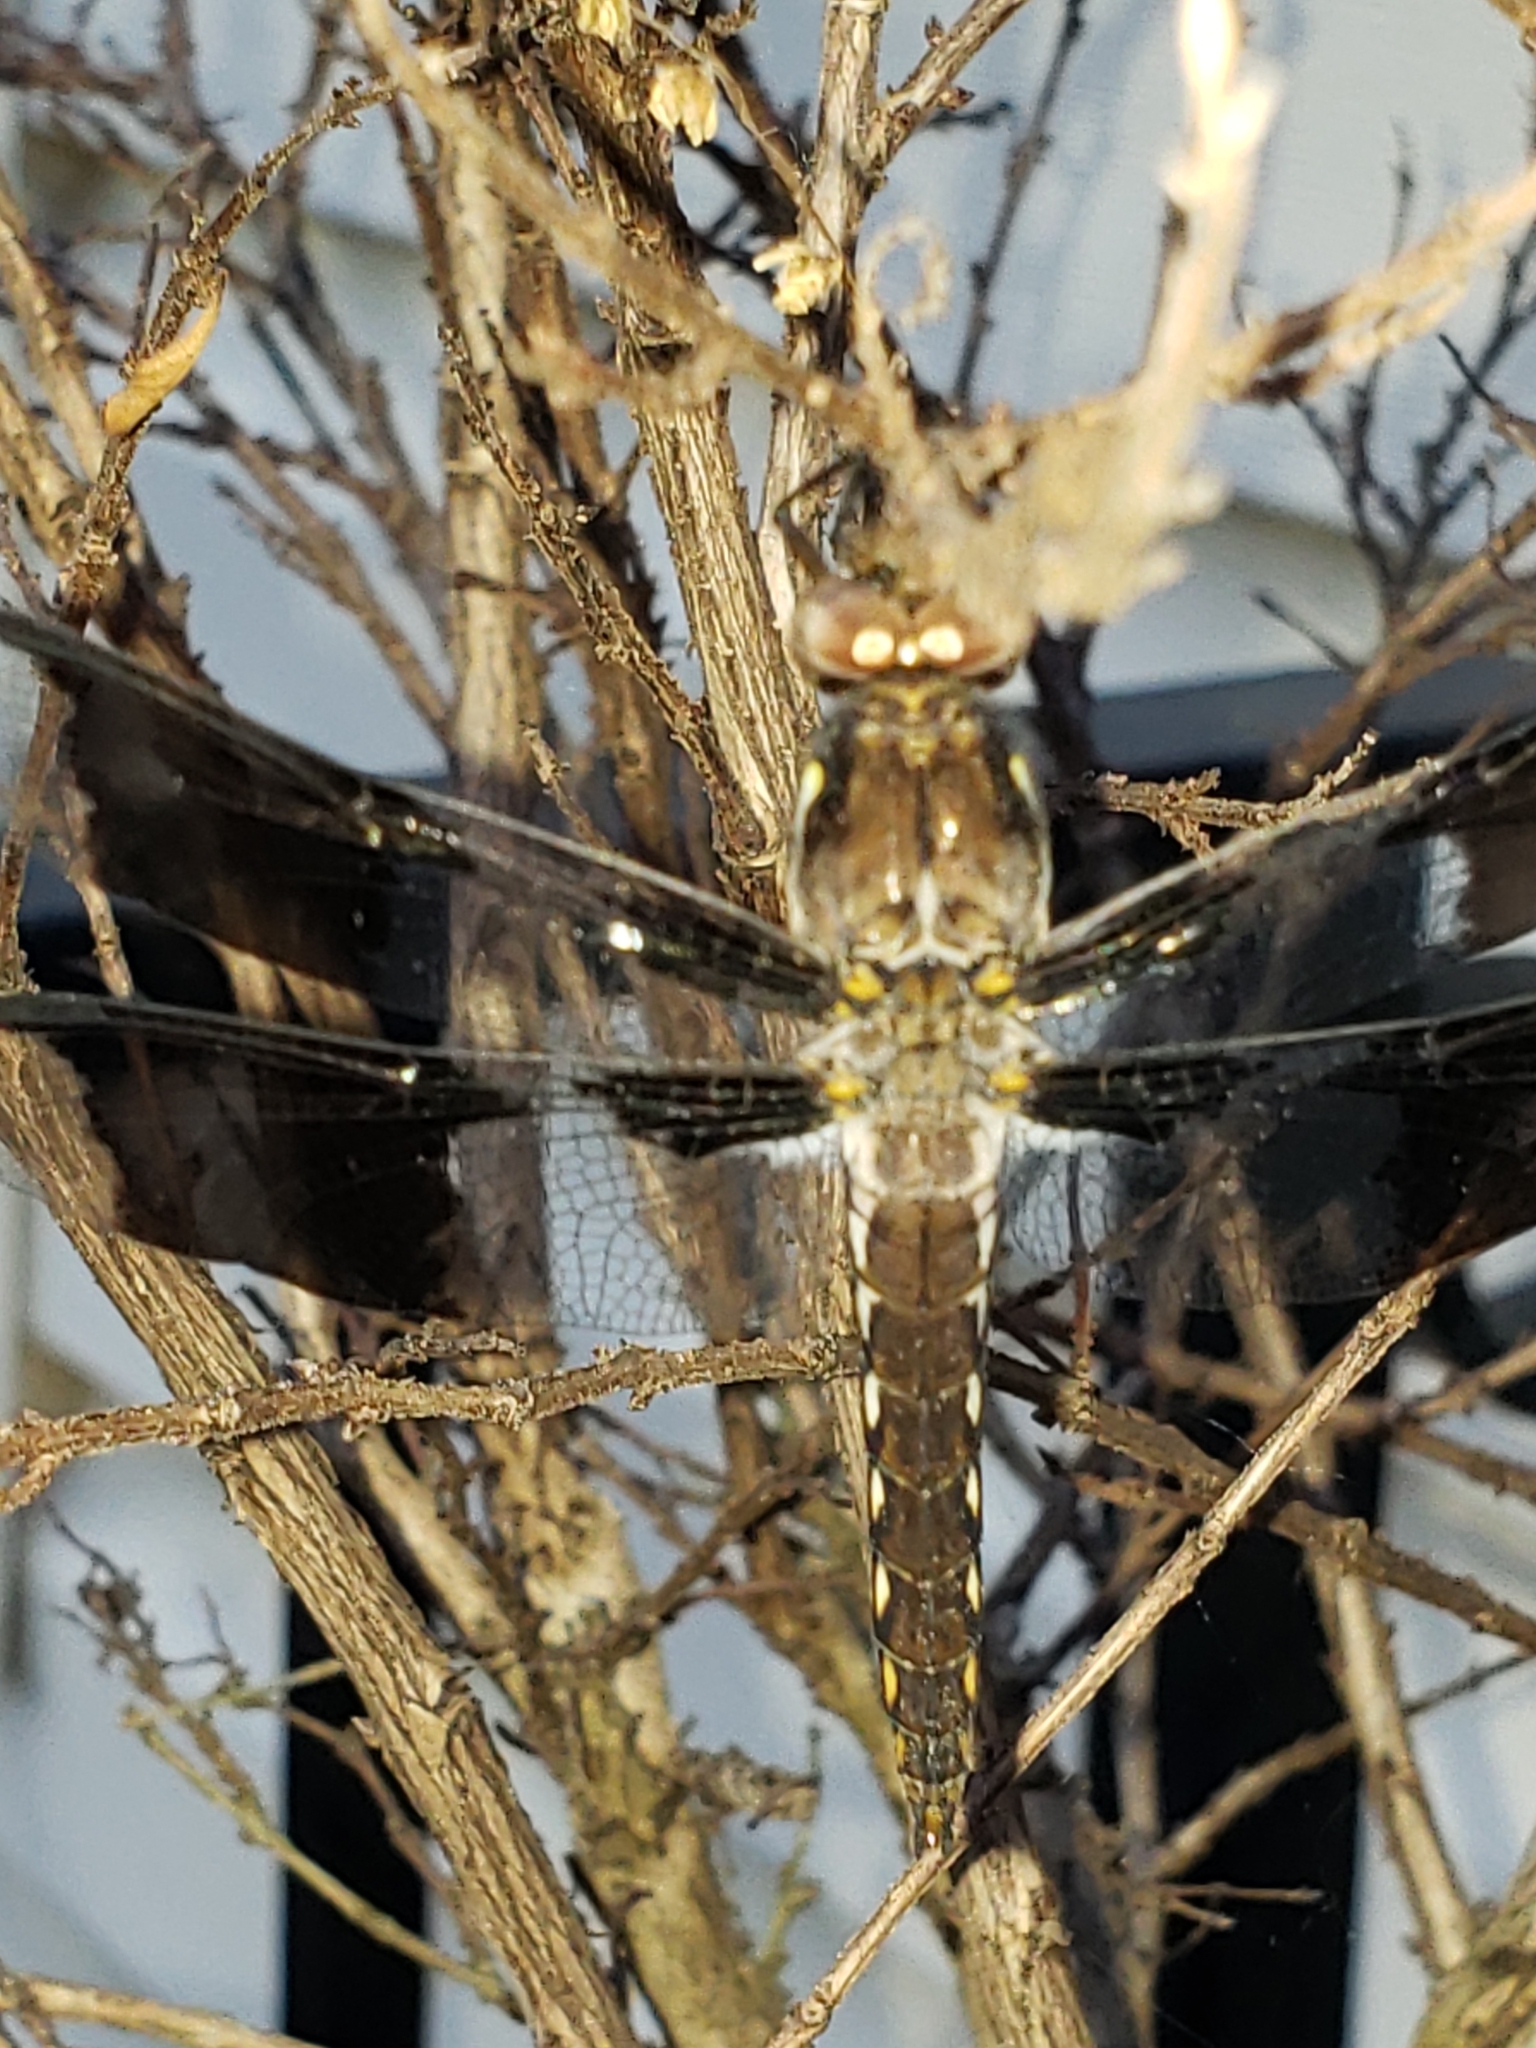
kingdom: Animalia
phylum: Arthropoda
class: Insecta
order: Odonata
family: Libellulidae
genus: Plathemis
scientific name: Plathemis lydia
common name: Common whitetail
